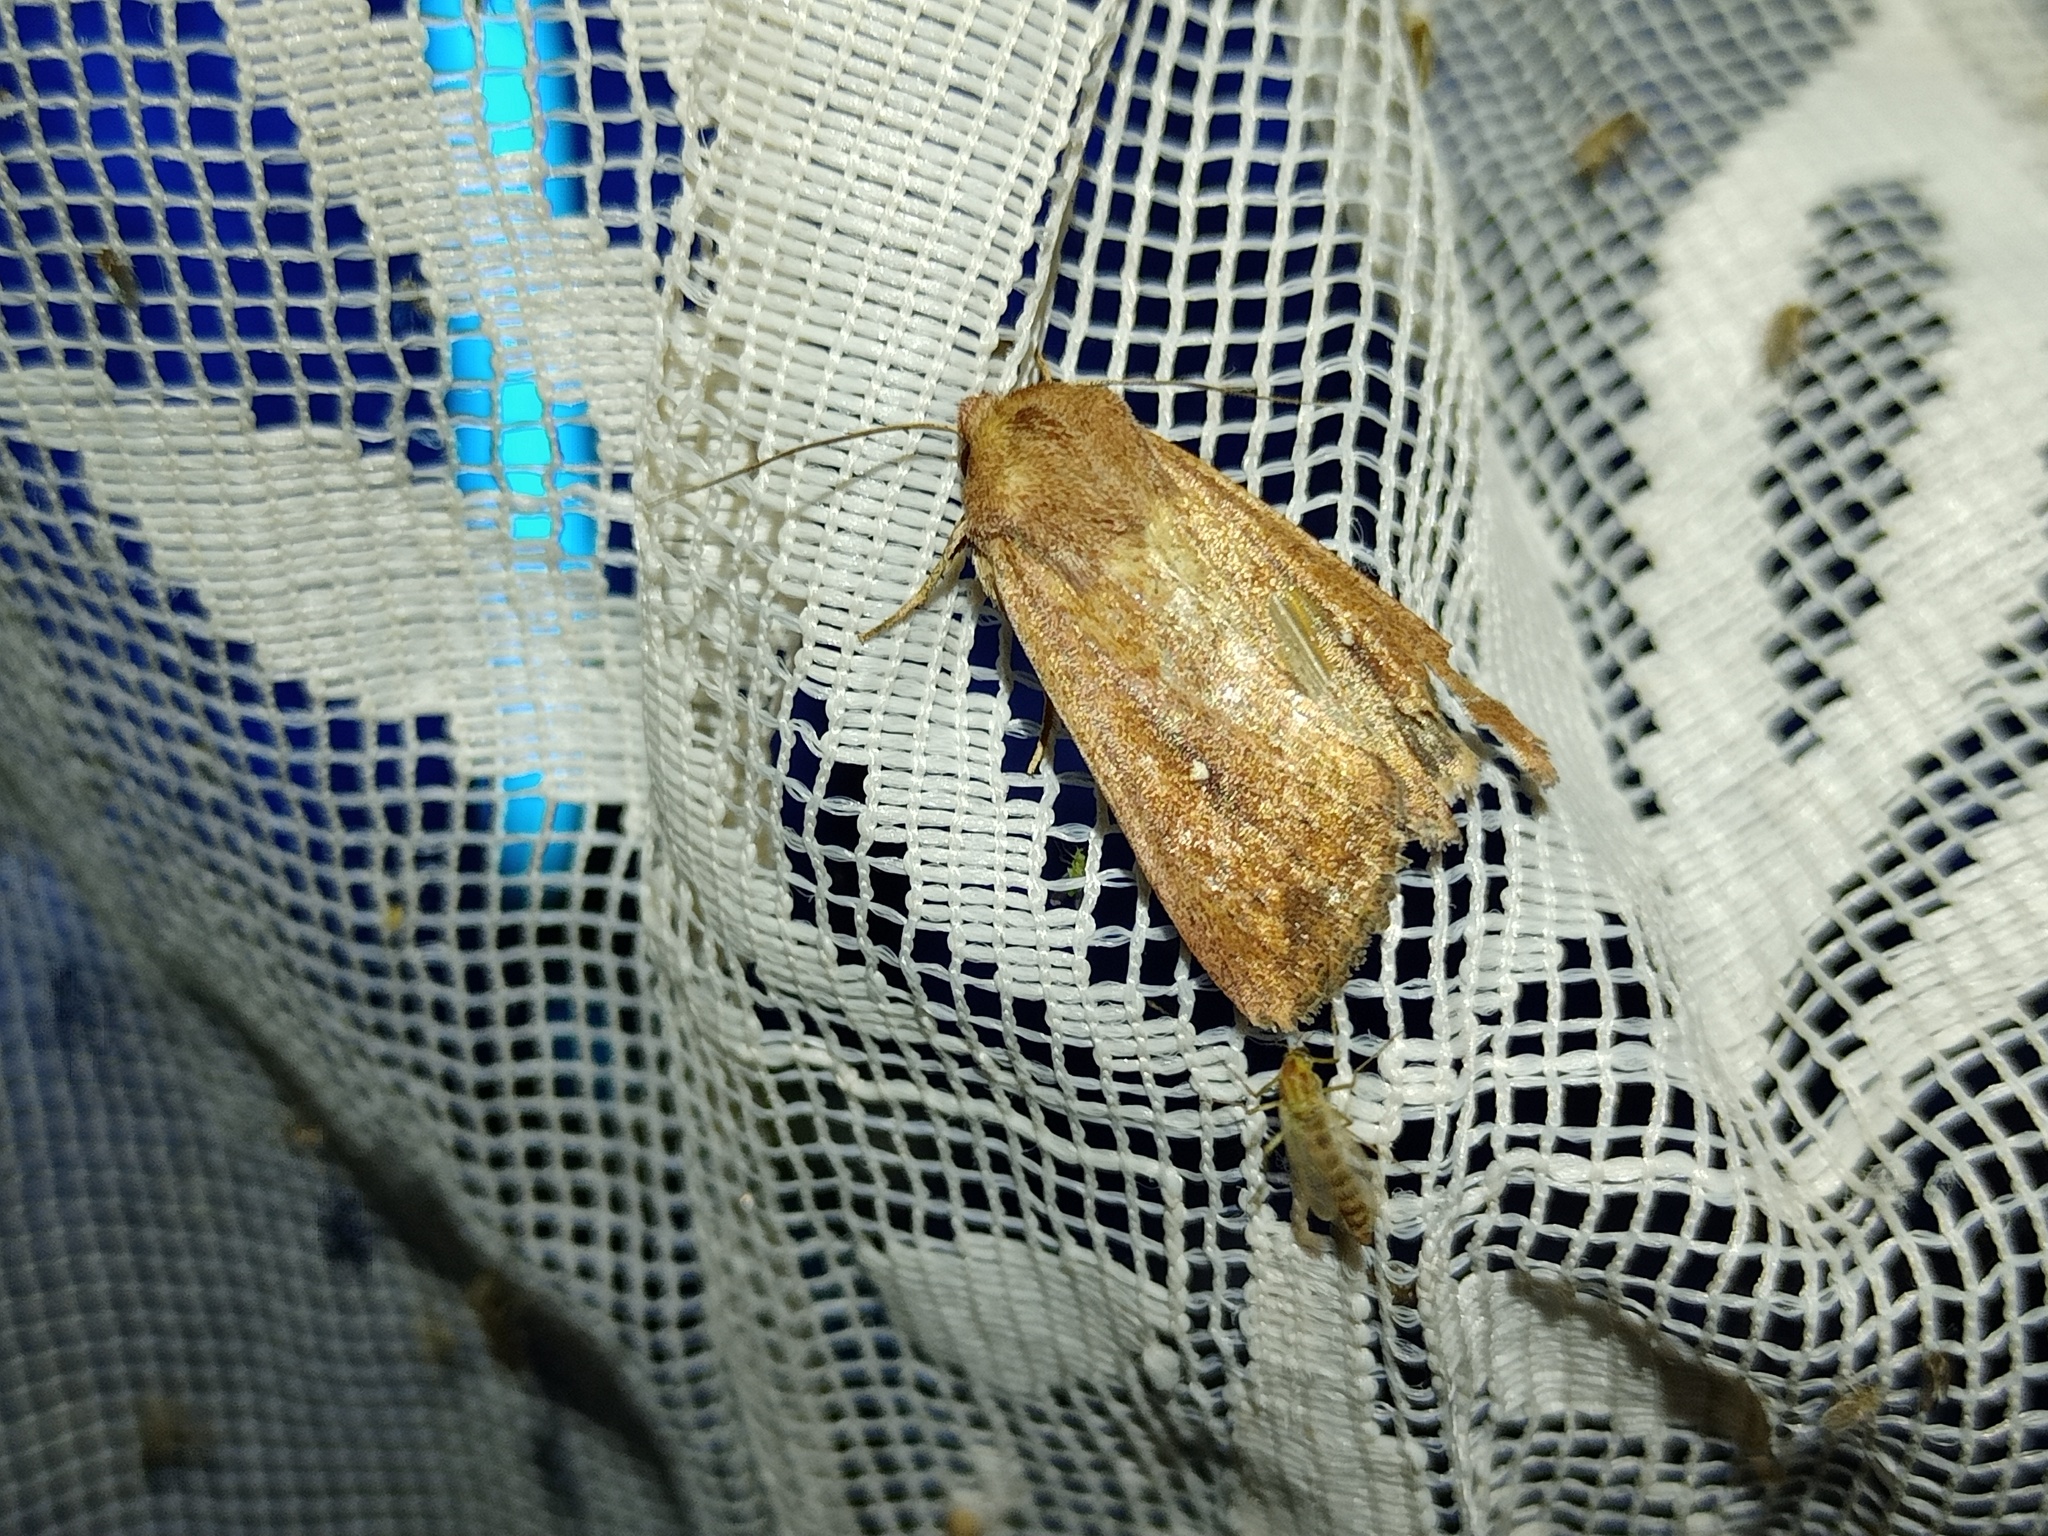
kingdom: Animalia
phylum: Arthropoda
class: Insecta
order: Lepidoptera
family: Noctuidae
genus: Mythimna
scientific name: Mythimna albipuncta
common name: White-point
